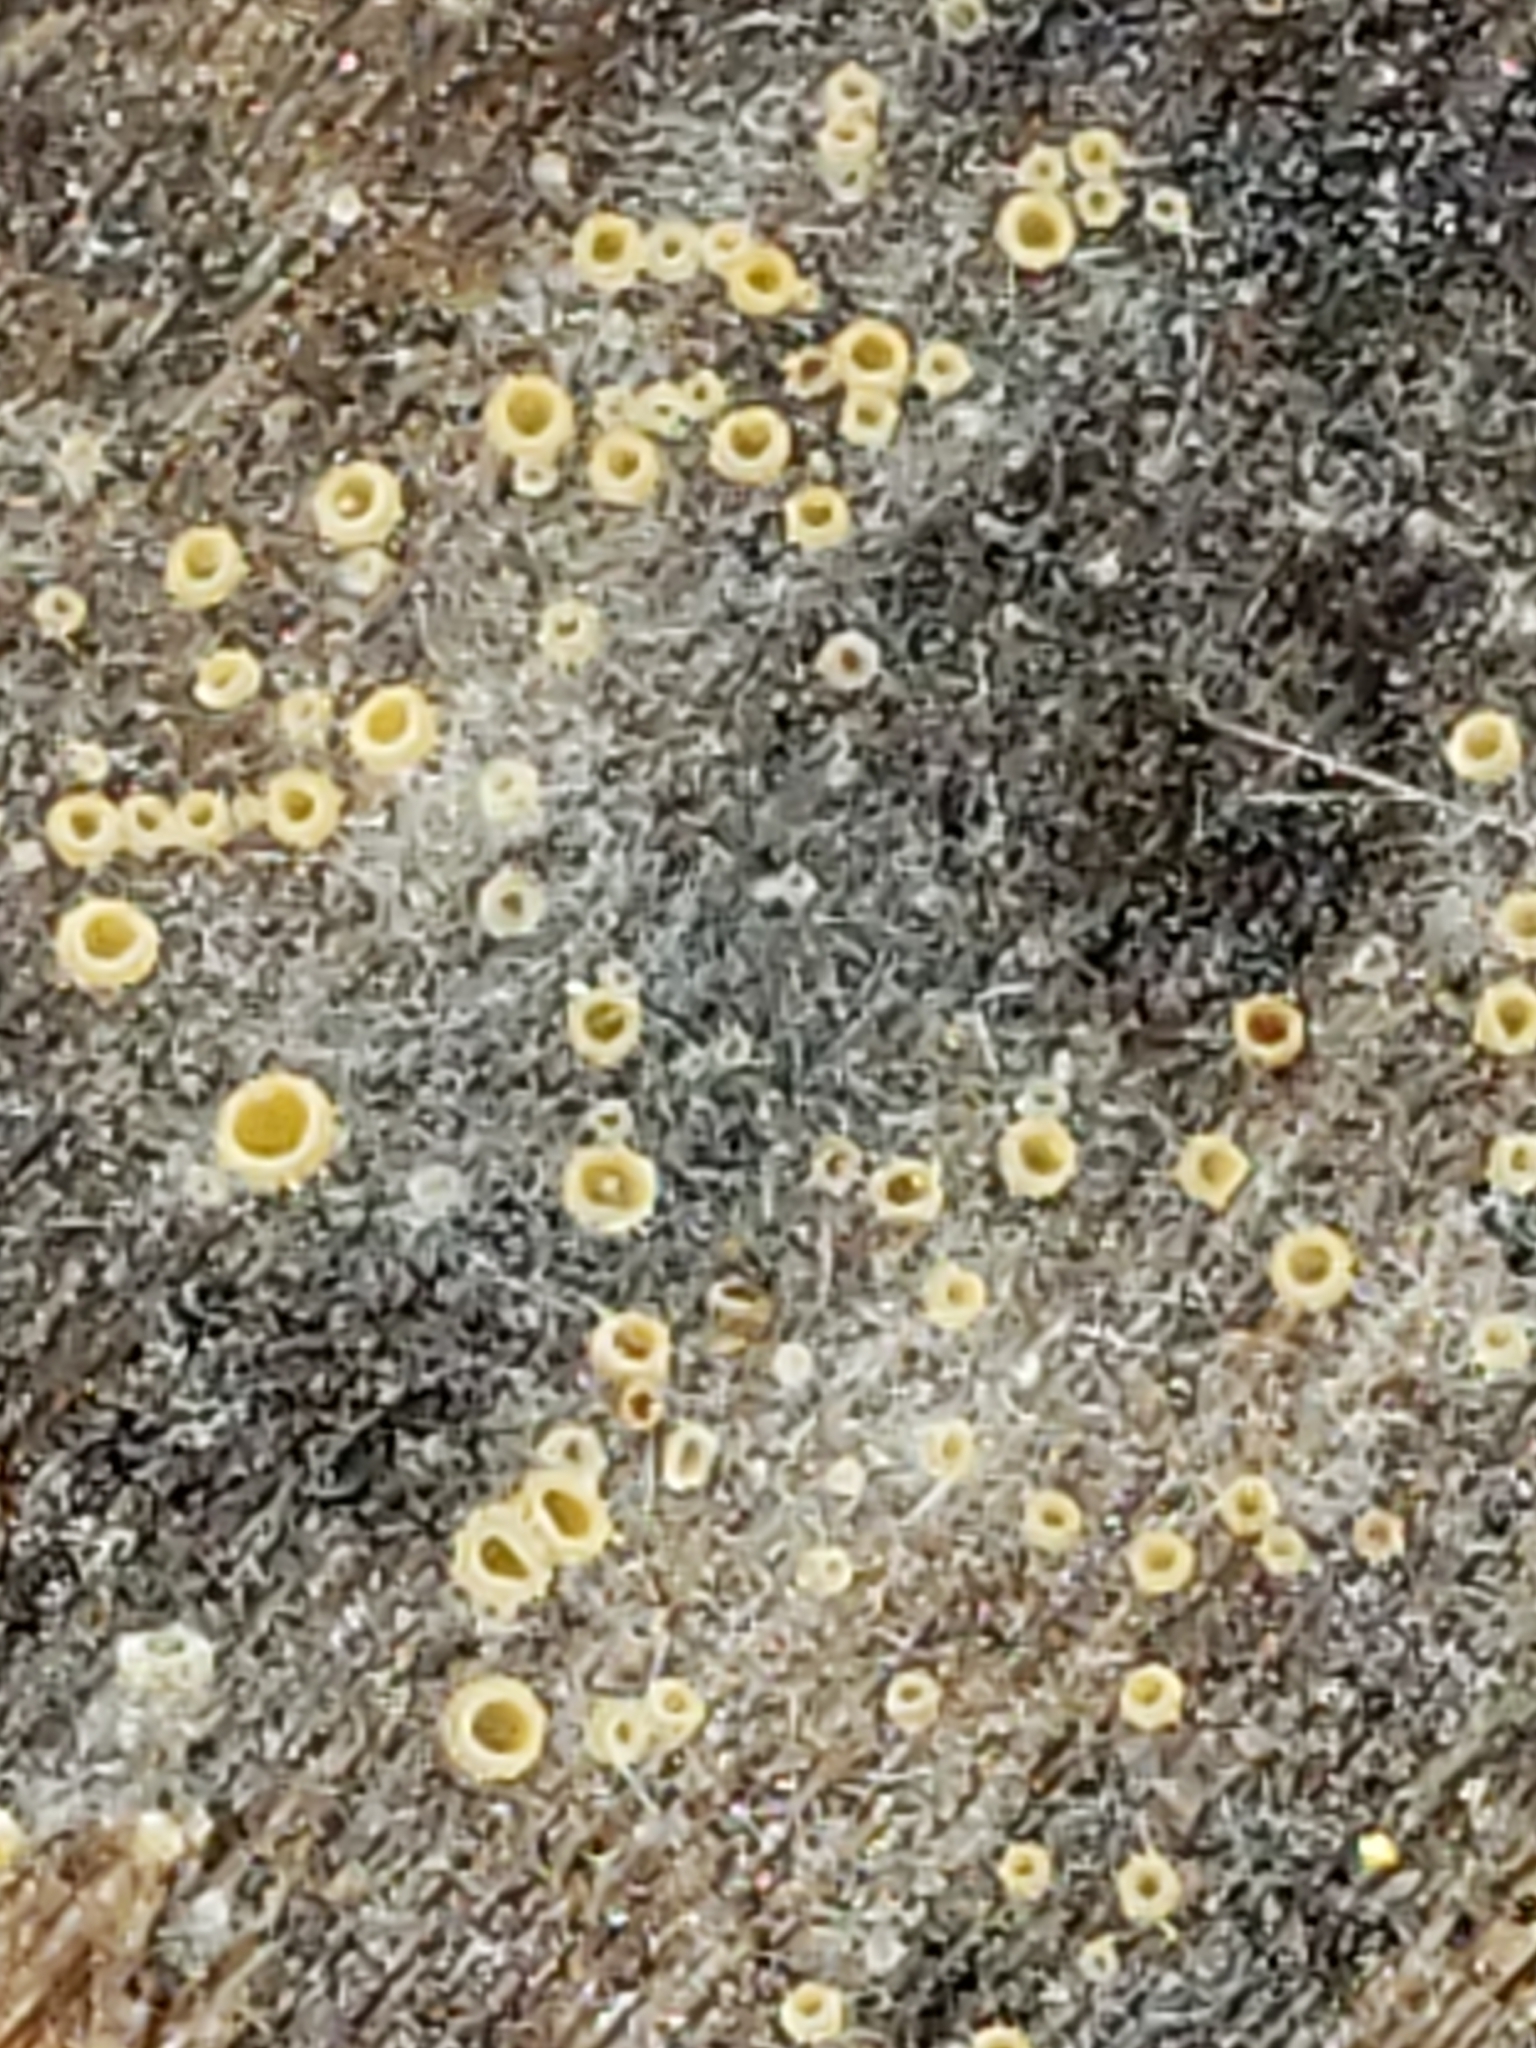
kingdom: Fungi
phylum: Ascomycota
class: Leotiomycetes
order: Helotiales
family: Arachnopezizaceae
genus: Arachnopeziza
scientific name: Arachnopeziza trabinelloides
